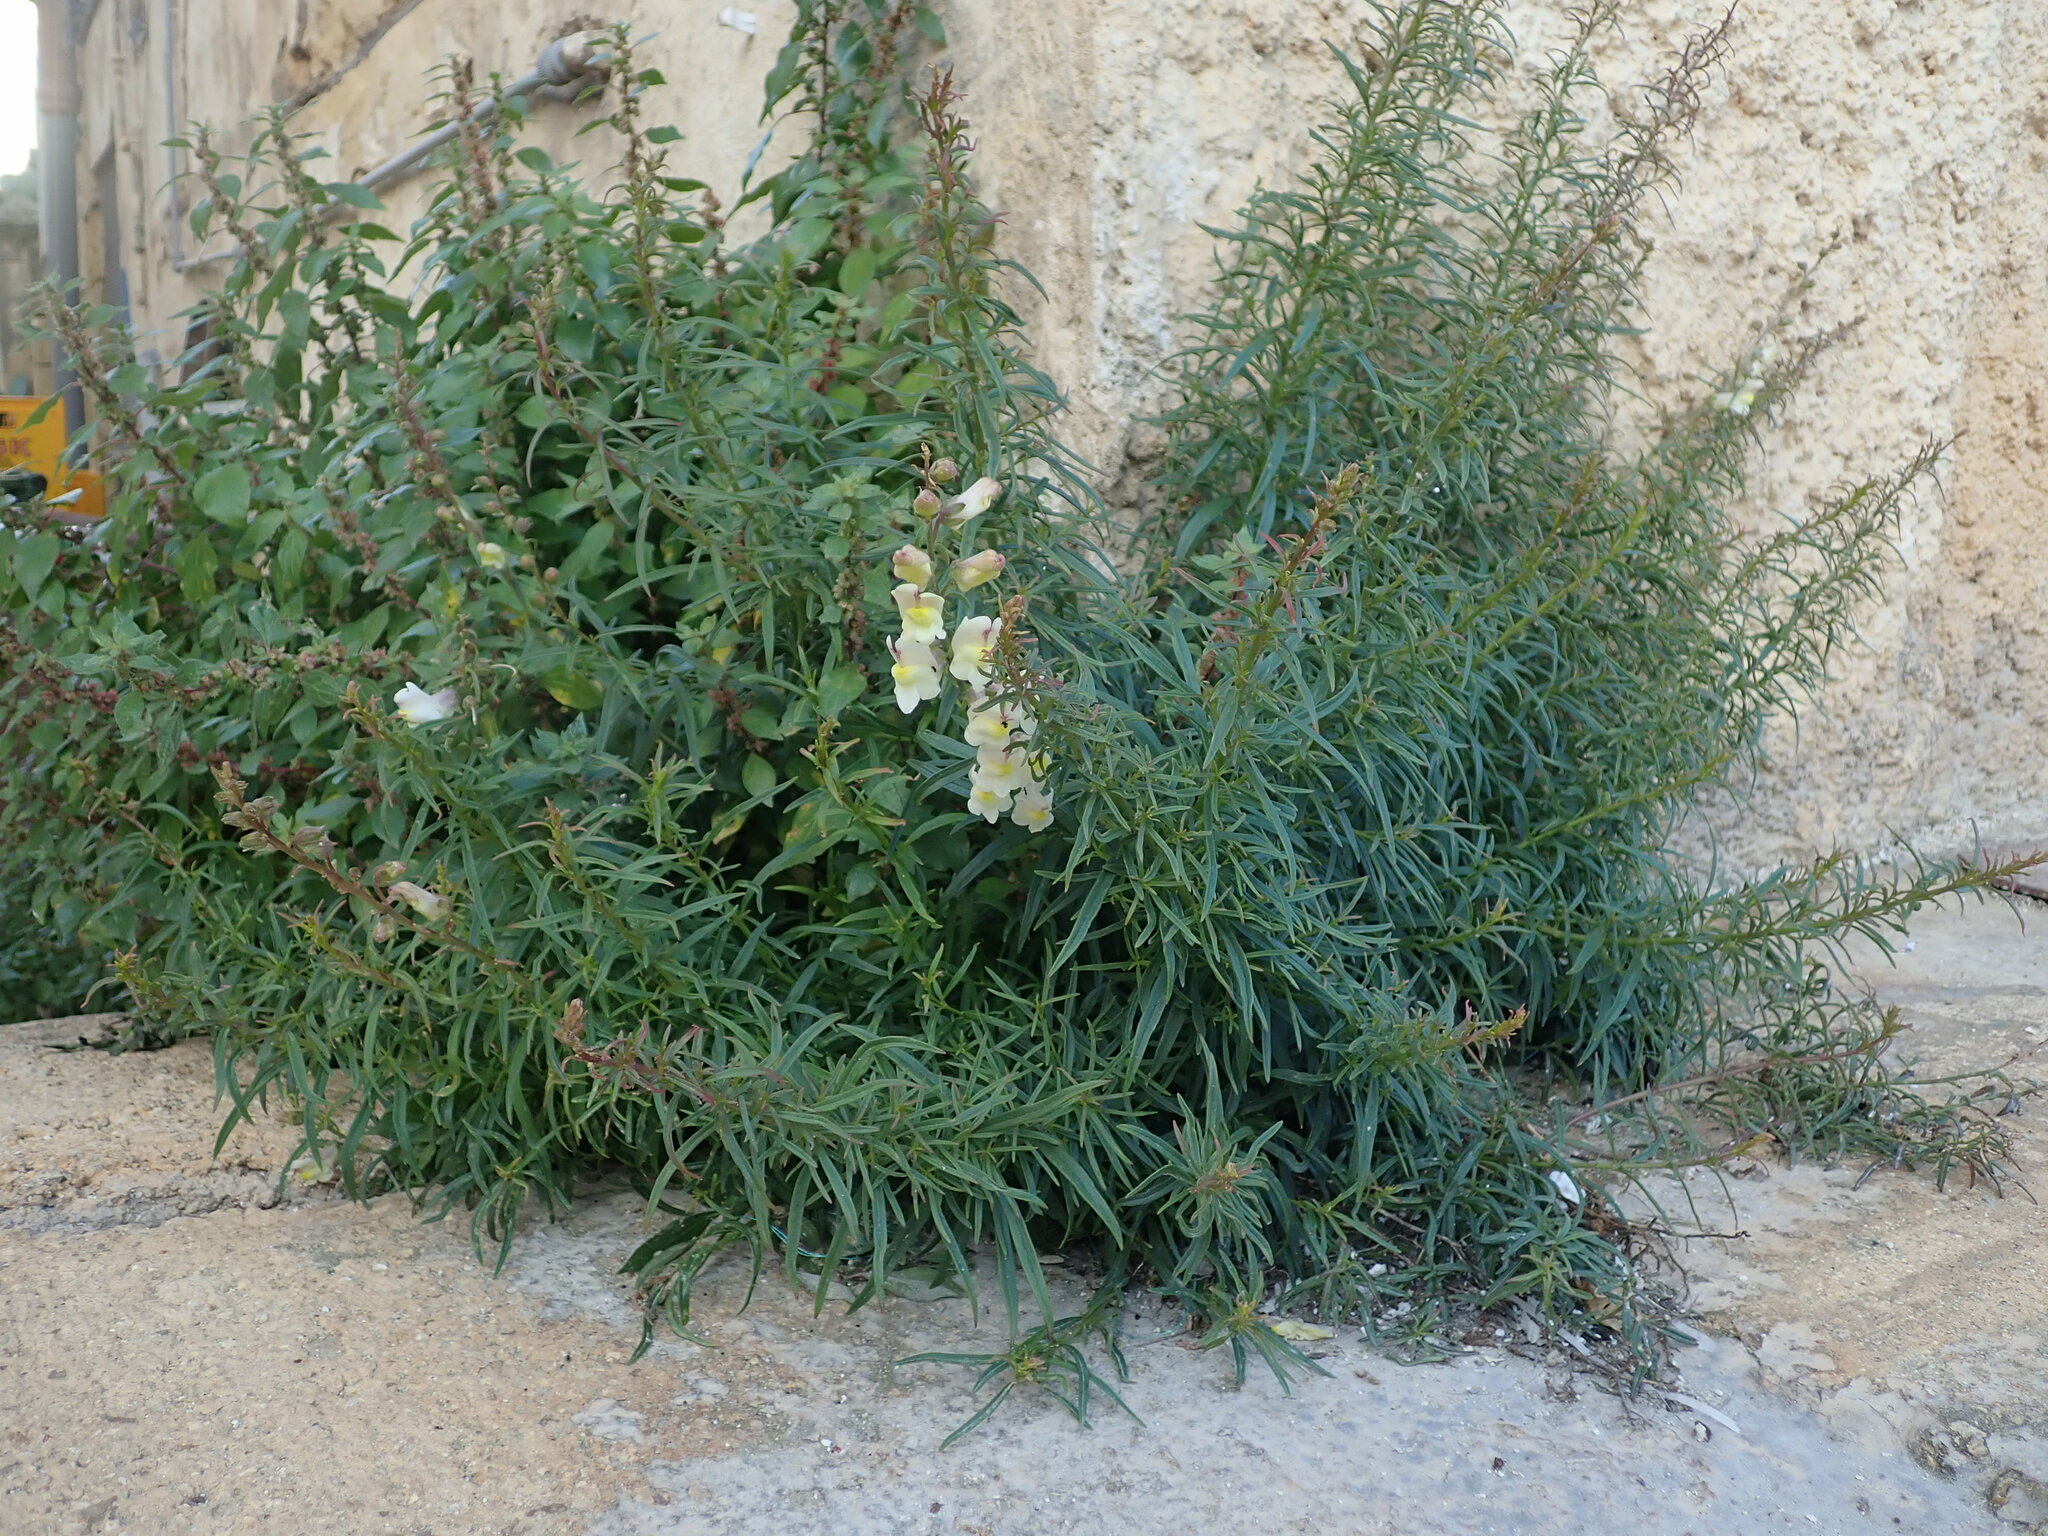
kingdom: Plantae
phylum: Tracheophyta
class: Magnoliopsida
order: Lamiales
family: Plantaginaceae
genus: Antirrhinum
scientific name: Antirrhinum siculum
